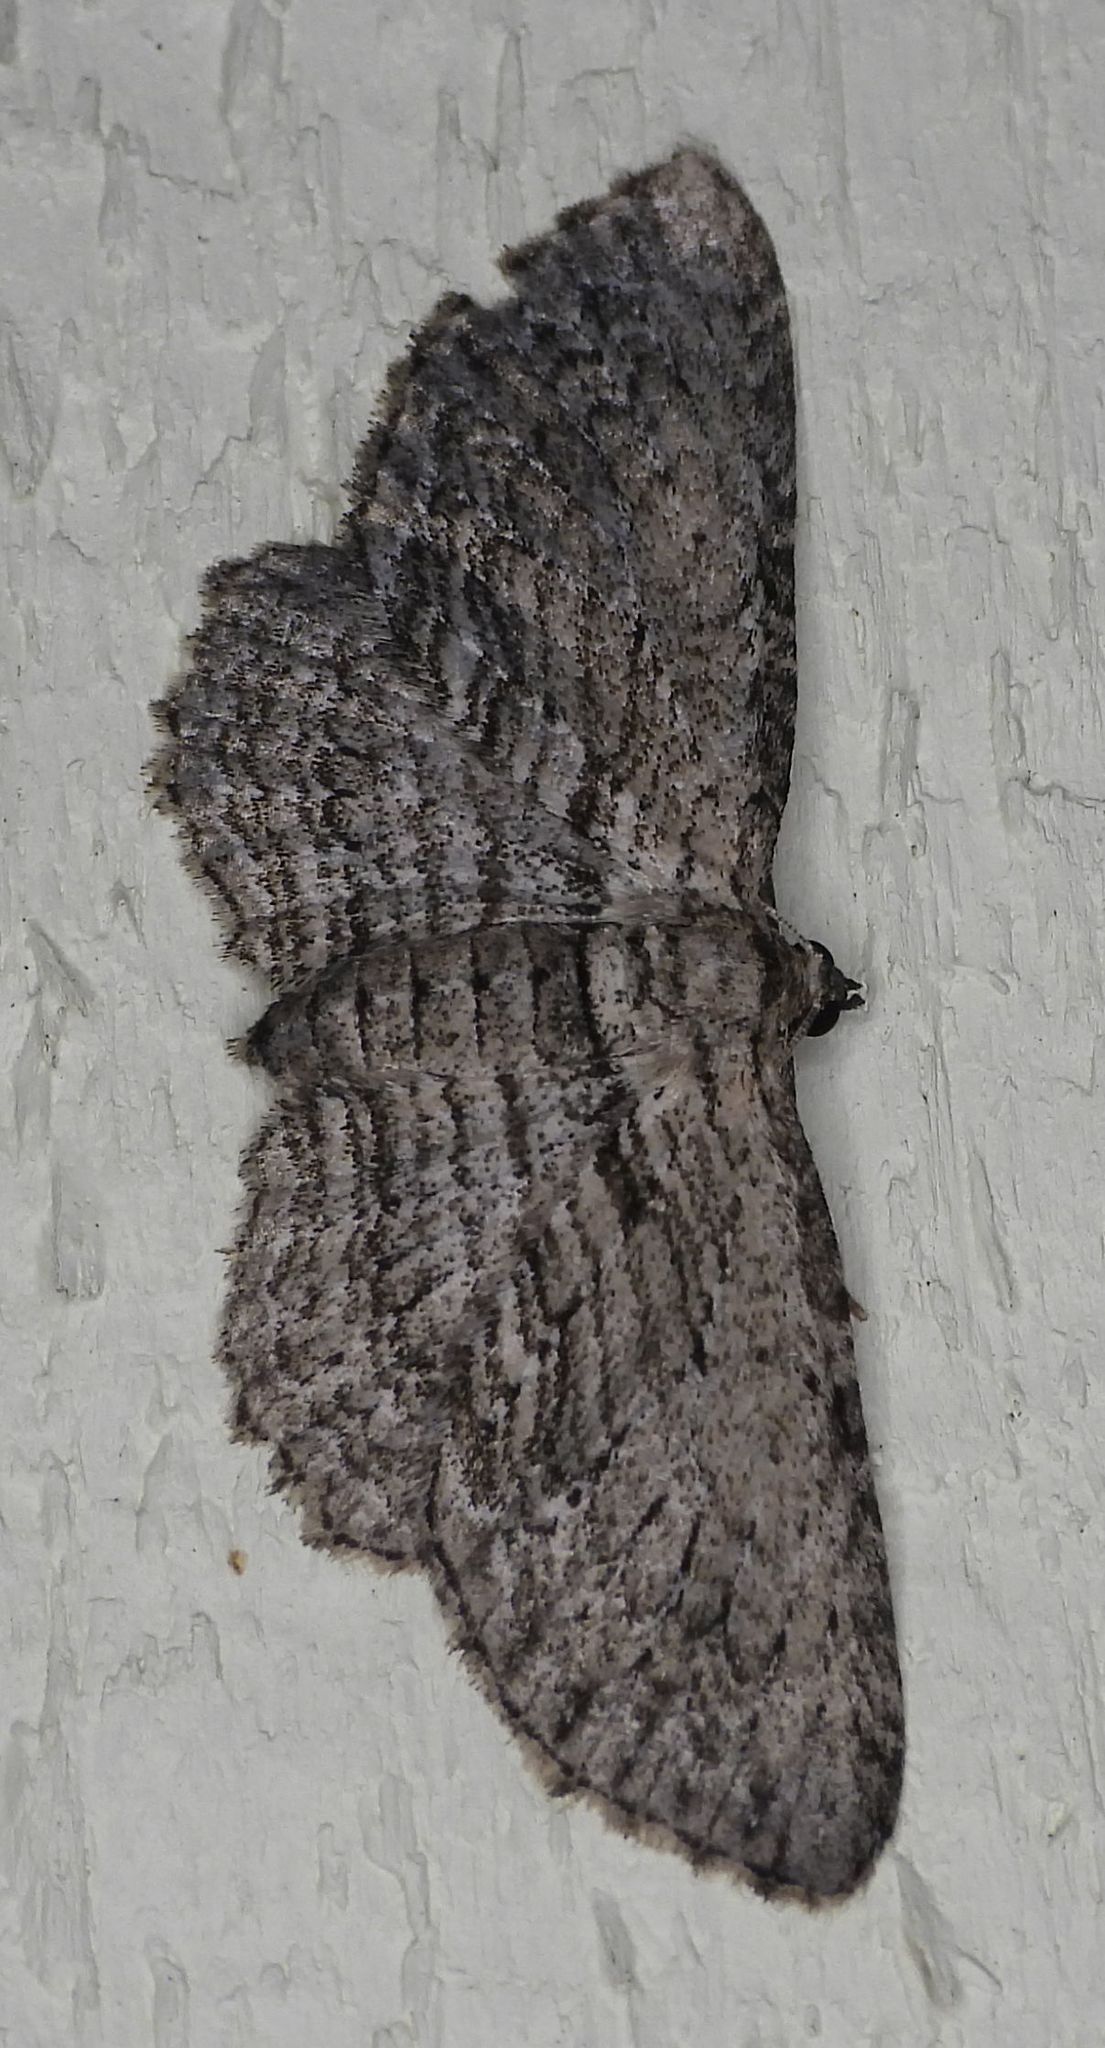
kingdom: Animalia
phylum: Arthropoda
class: Insecta
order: Lepidoptera
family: Geometridae
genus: Horisme
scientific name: Horisme intestinata
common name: Brown bark carpet
